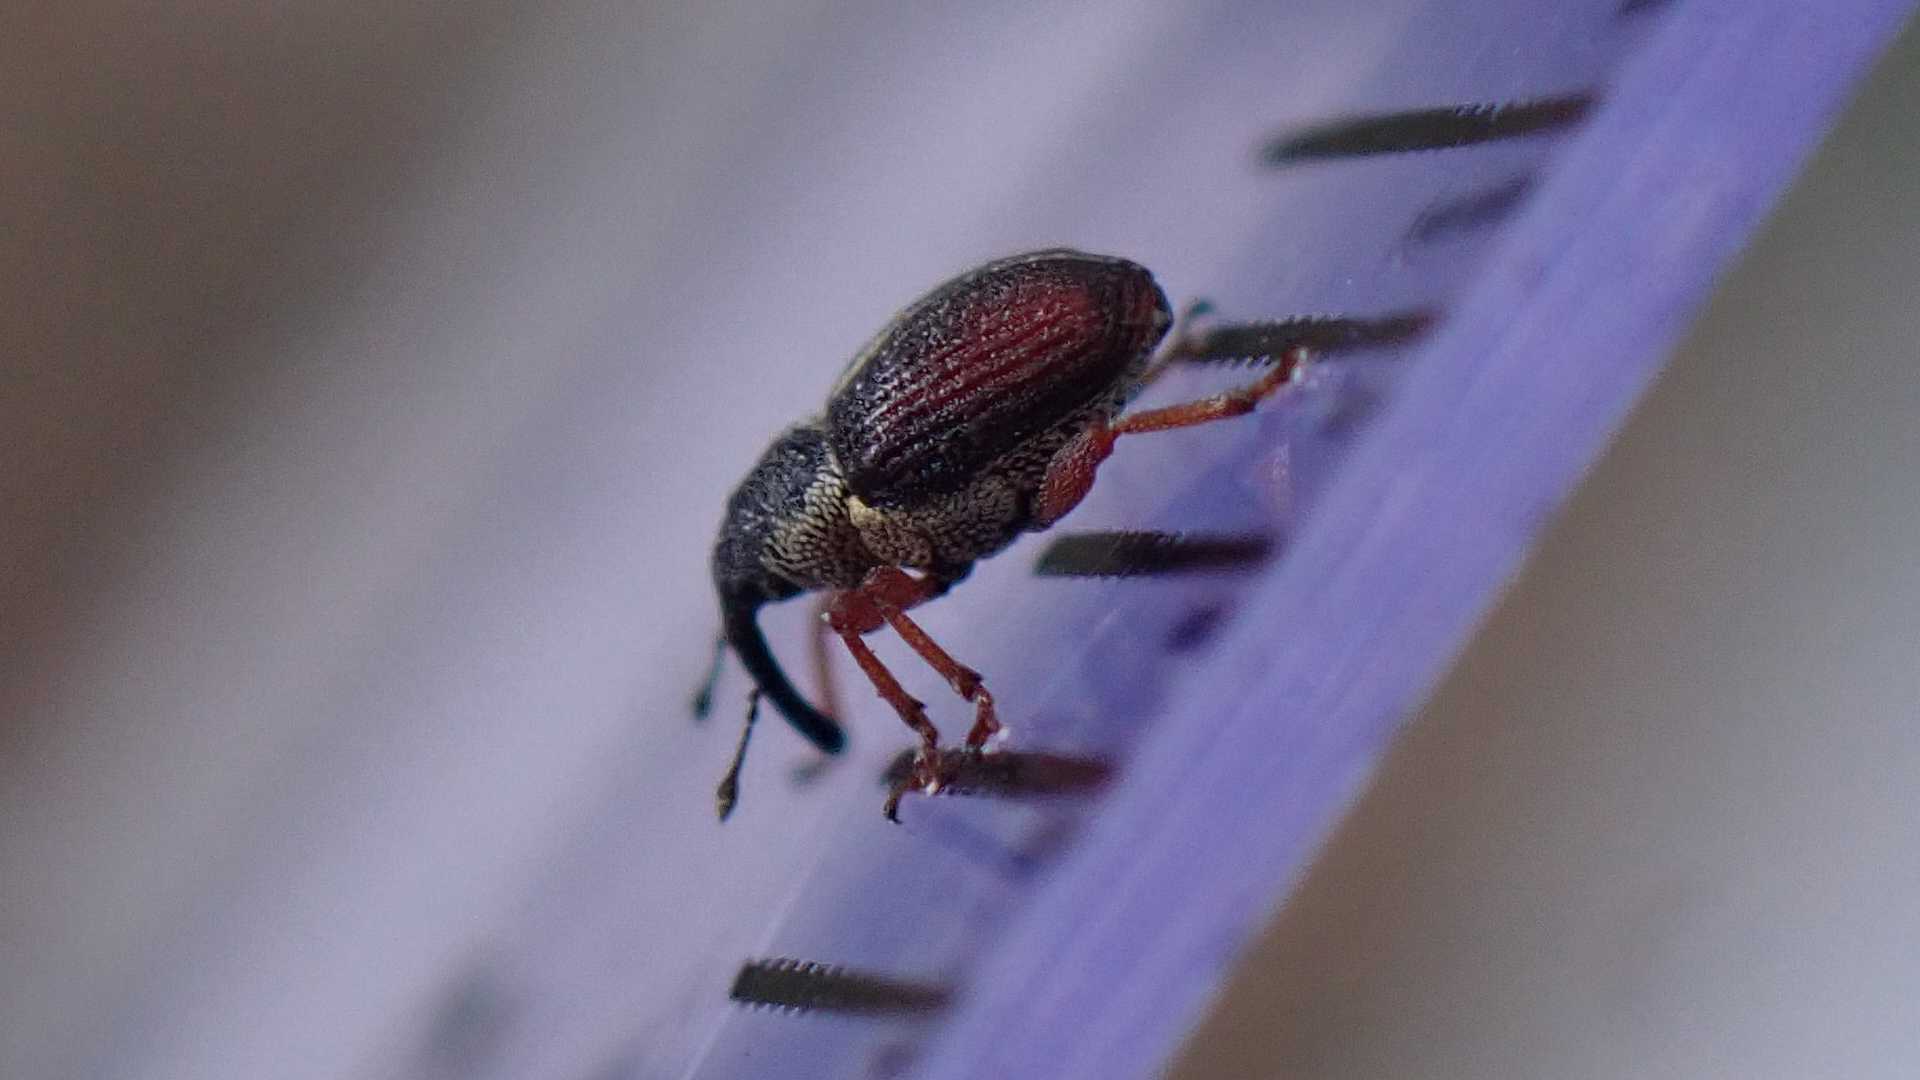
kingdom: Animalia
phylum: Arthropoda
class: Insecta
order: Coleoptera
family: Curculionidae
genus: Amalus
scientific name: Amalus scortillum
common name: Weevil
